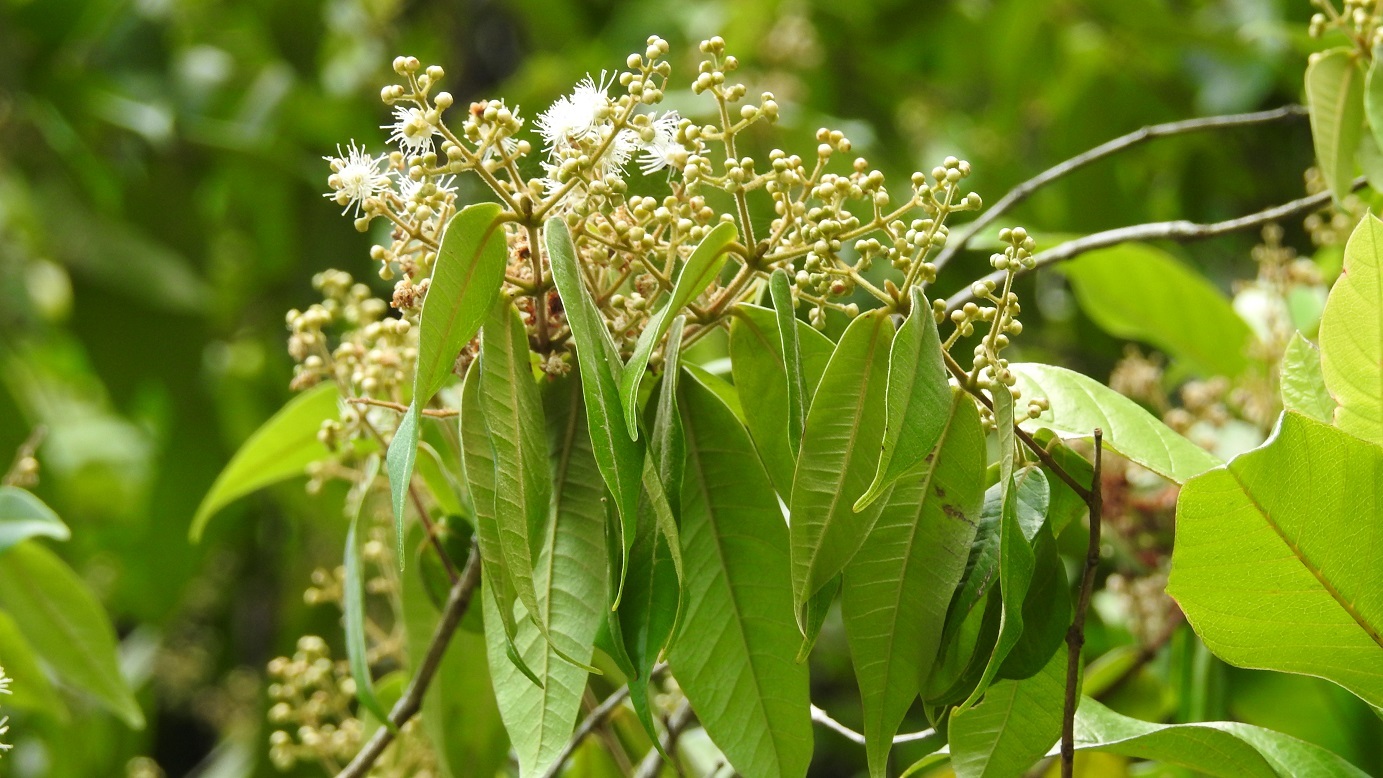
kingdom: Plantae
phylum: Tracheophyta
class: Magnoliopsida
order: Myrtales
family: Myrtaceae
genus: Myrcia
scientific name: Myrcia neovenulosa
